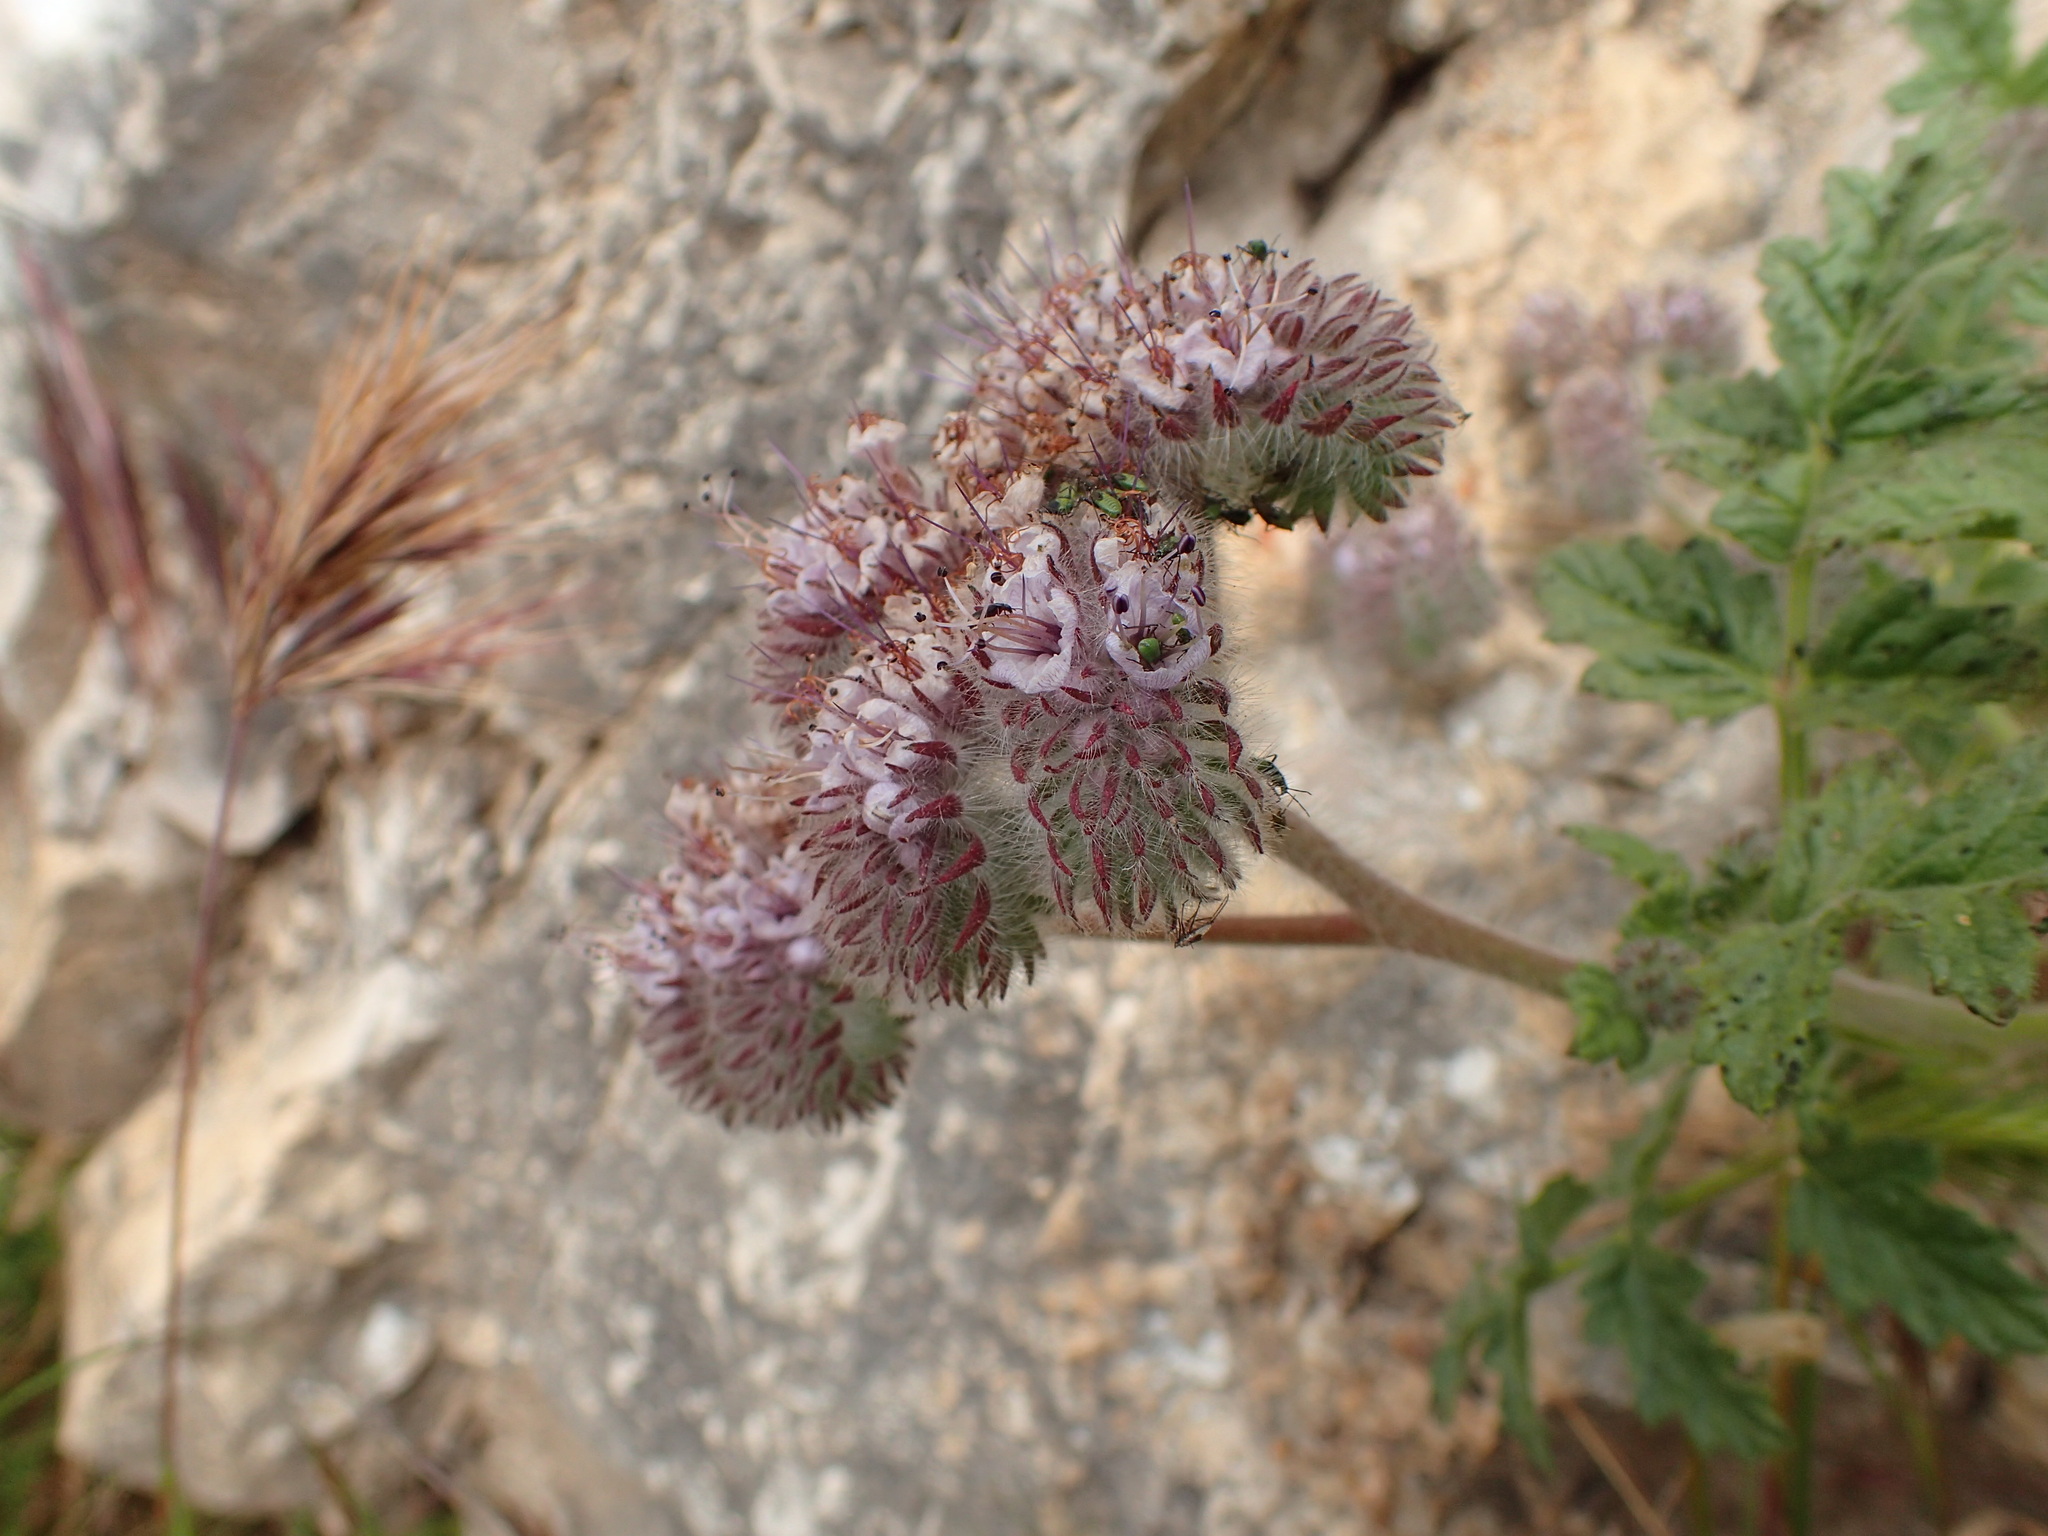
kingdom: Plantae
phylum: Tracheophyta
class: Magnoliopsida
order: Boraginales
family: Hydrophyllaceae
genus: Phacelia
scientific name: Phacelia hubbyi
